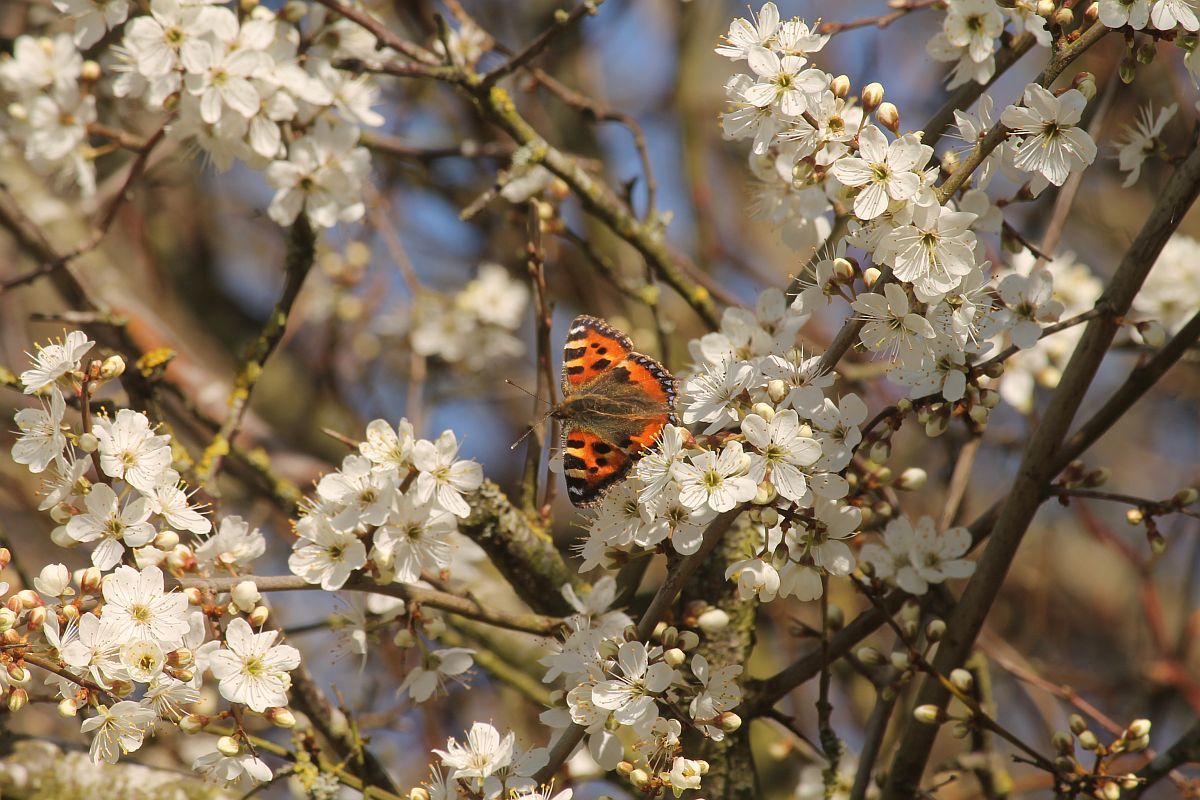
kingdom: Animalia
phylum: Arthropoda
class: Insecta
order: Lepidoptera
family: Nymphalidae
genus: Aglais
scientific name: Aglais urticae
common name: Small tortoiseshell
